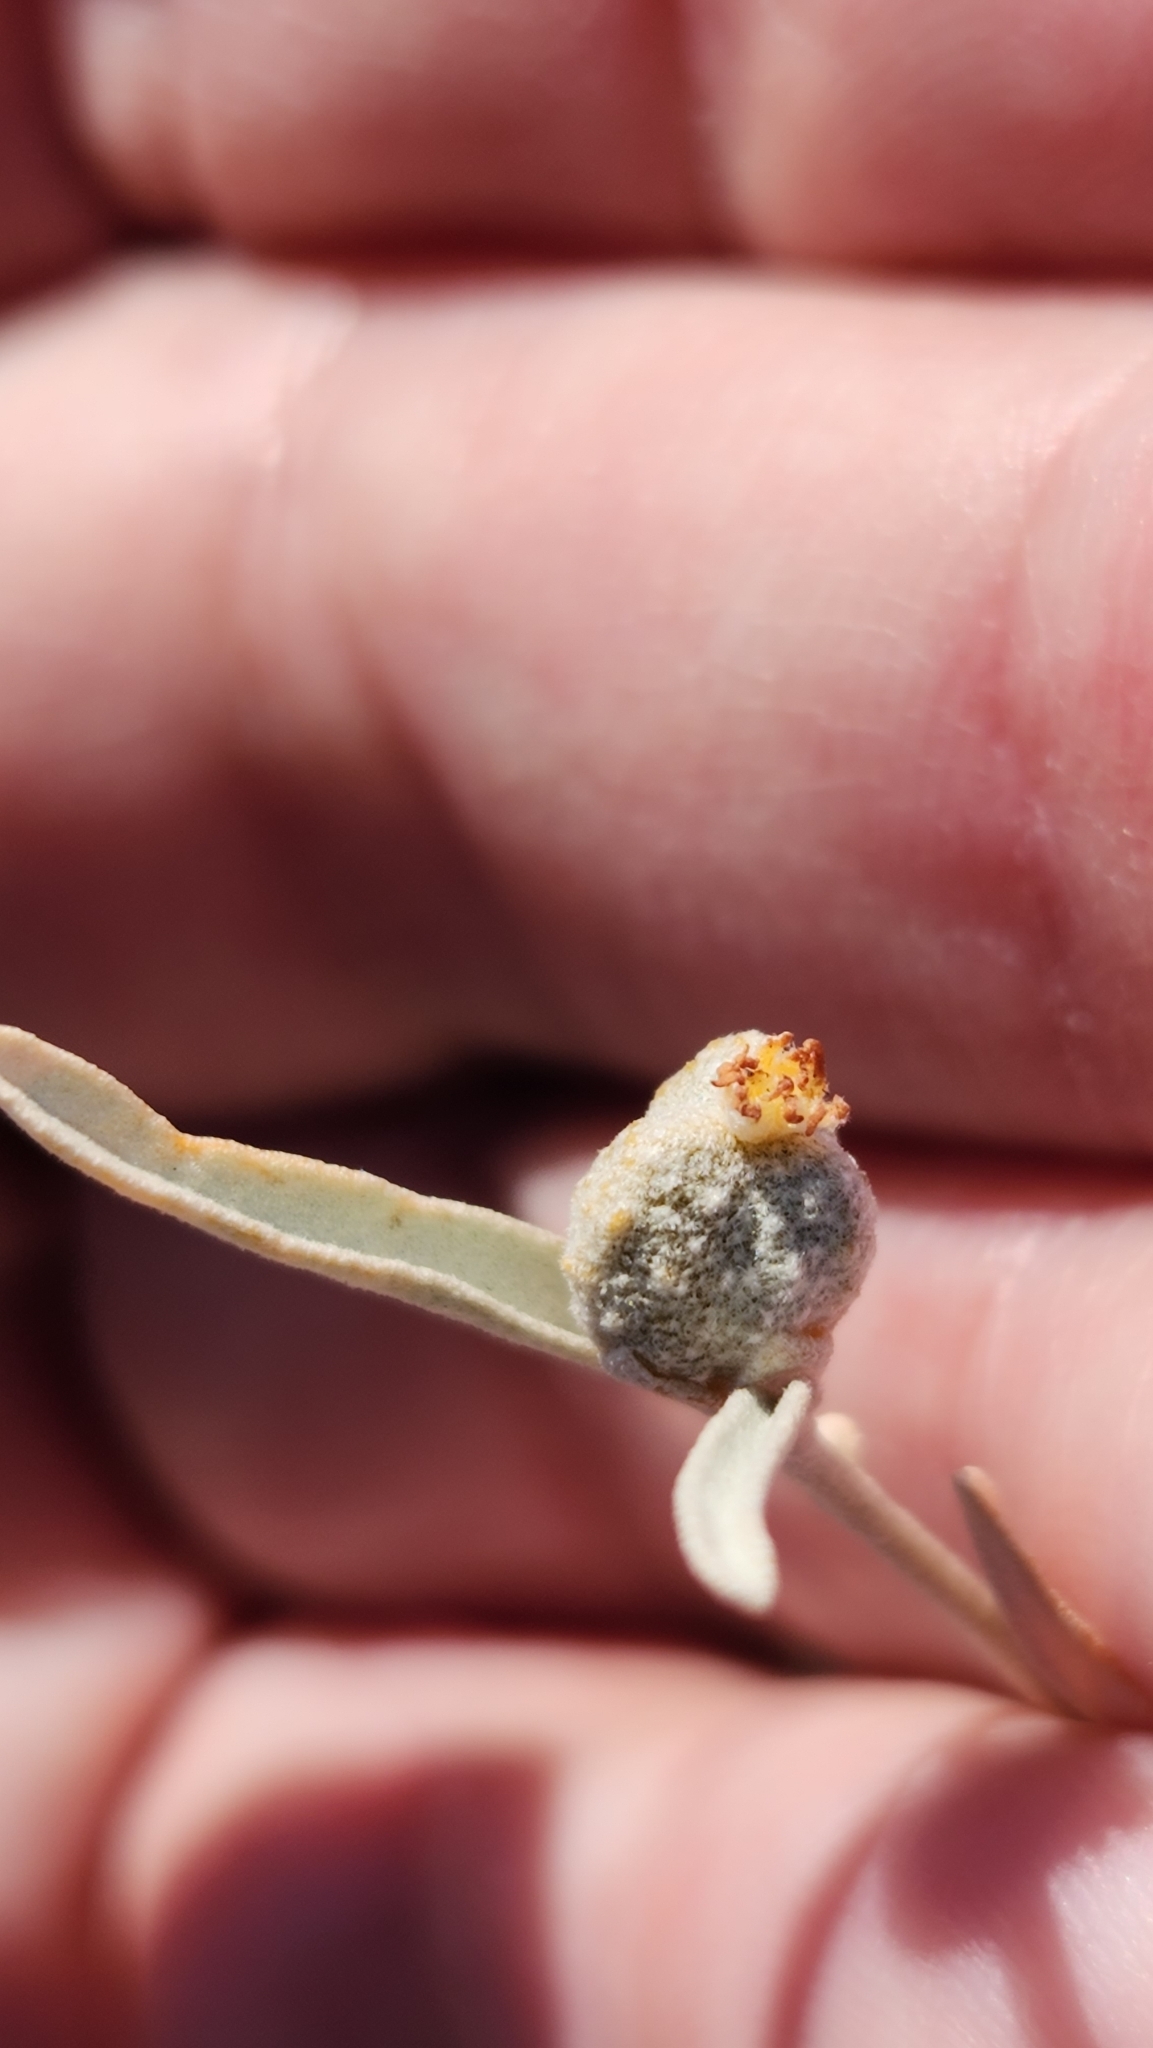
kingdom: Plantae
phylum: Tracheophyta
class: Magnoliopsida
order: Malpighiales
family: Euphorbiaceae
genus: Croton
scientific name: Croton californicus
